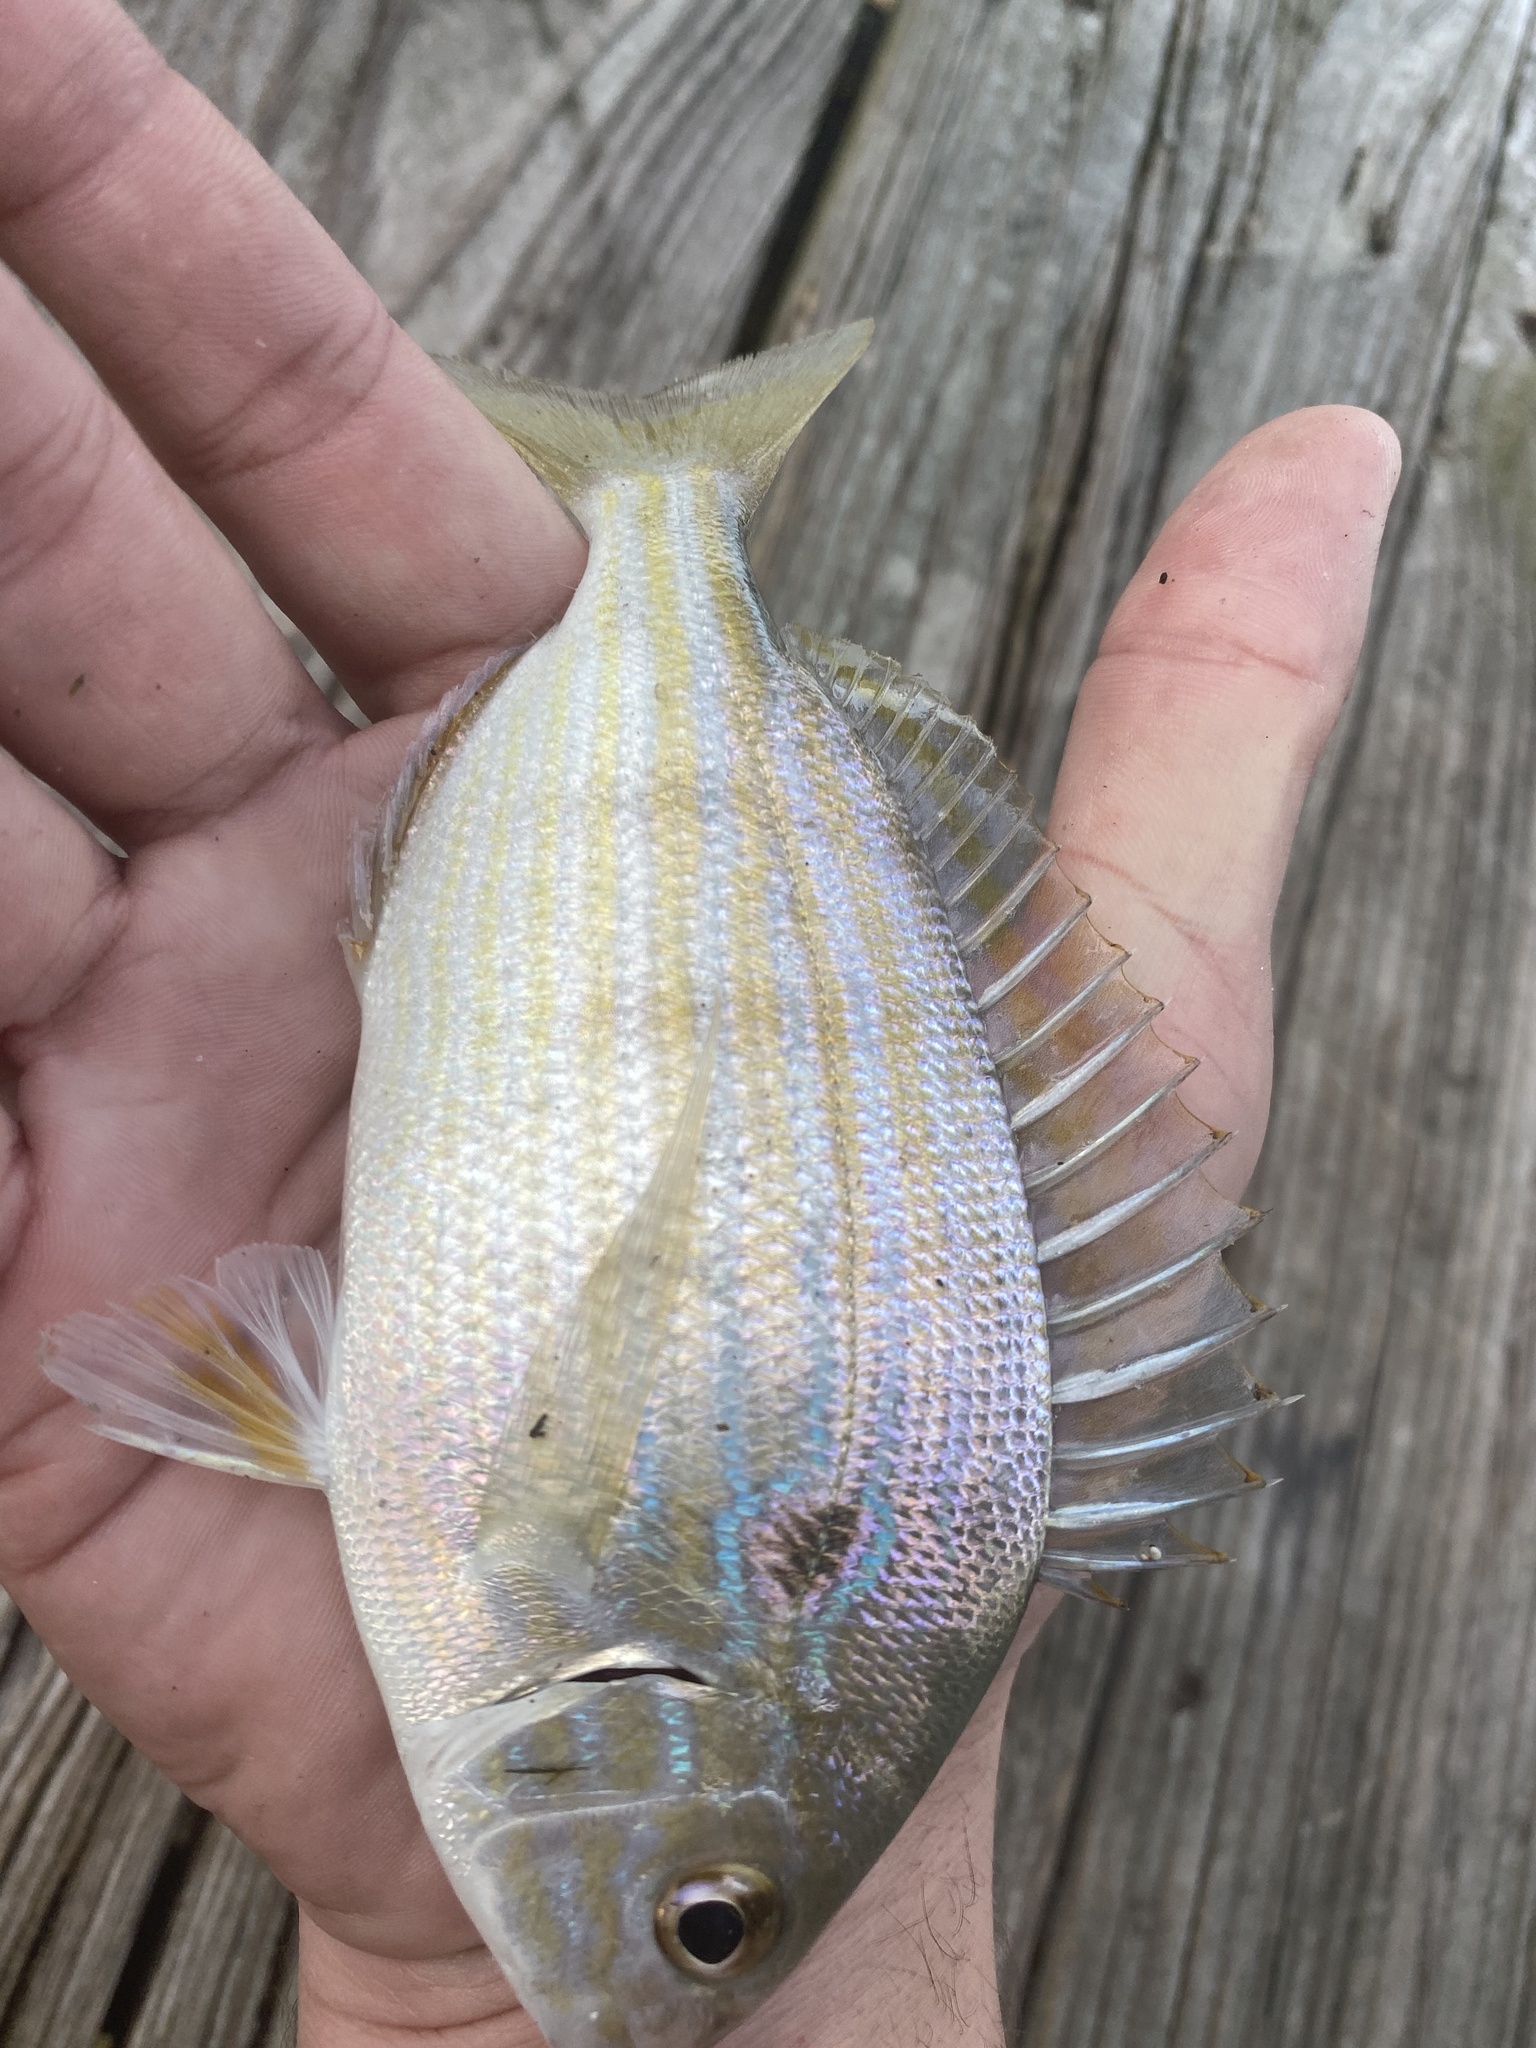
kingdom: Animalia
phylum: Chordata
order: Perciformes
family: Sparidae
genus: Lagodon
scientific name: Lagodon rhomboides
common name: Pinfish
